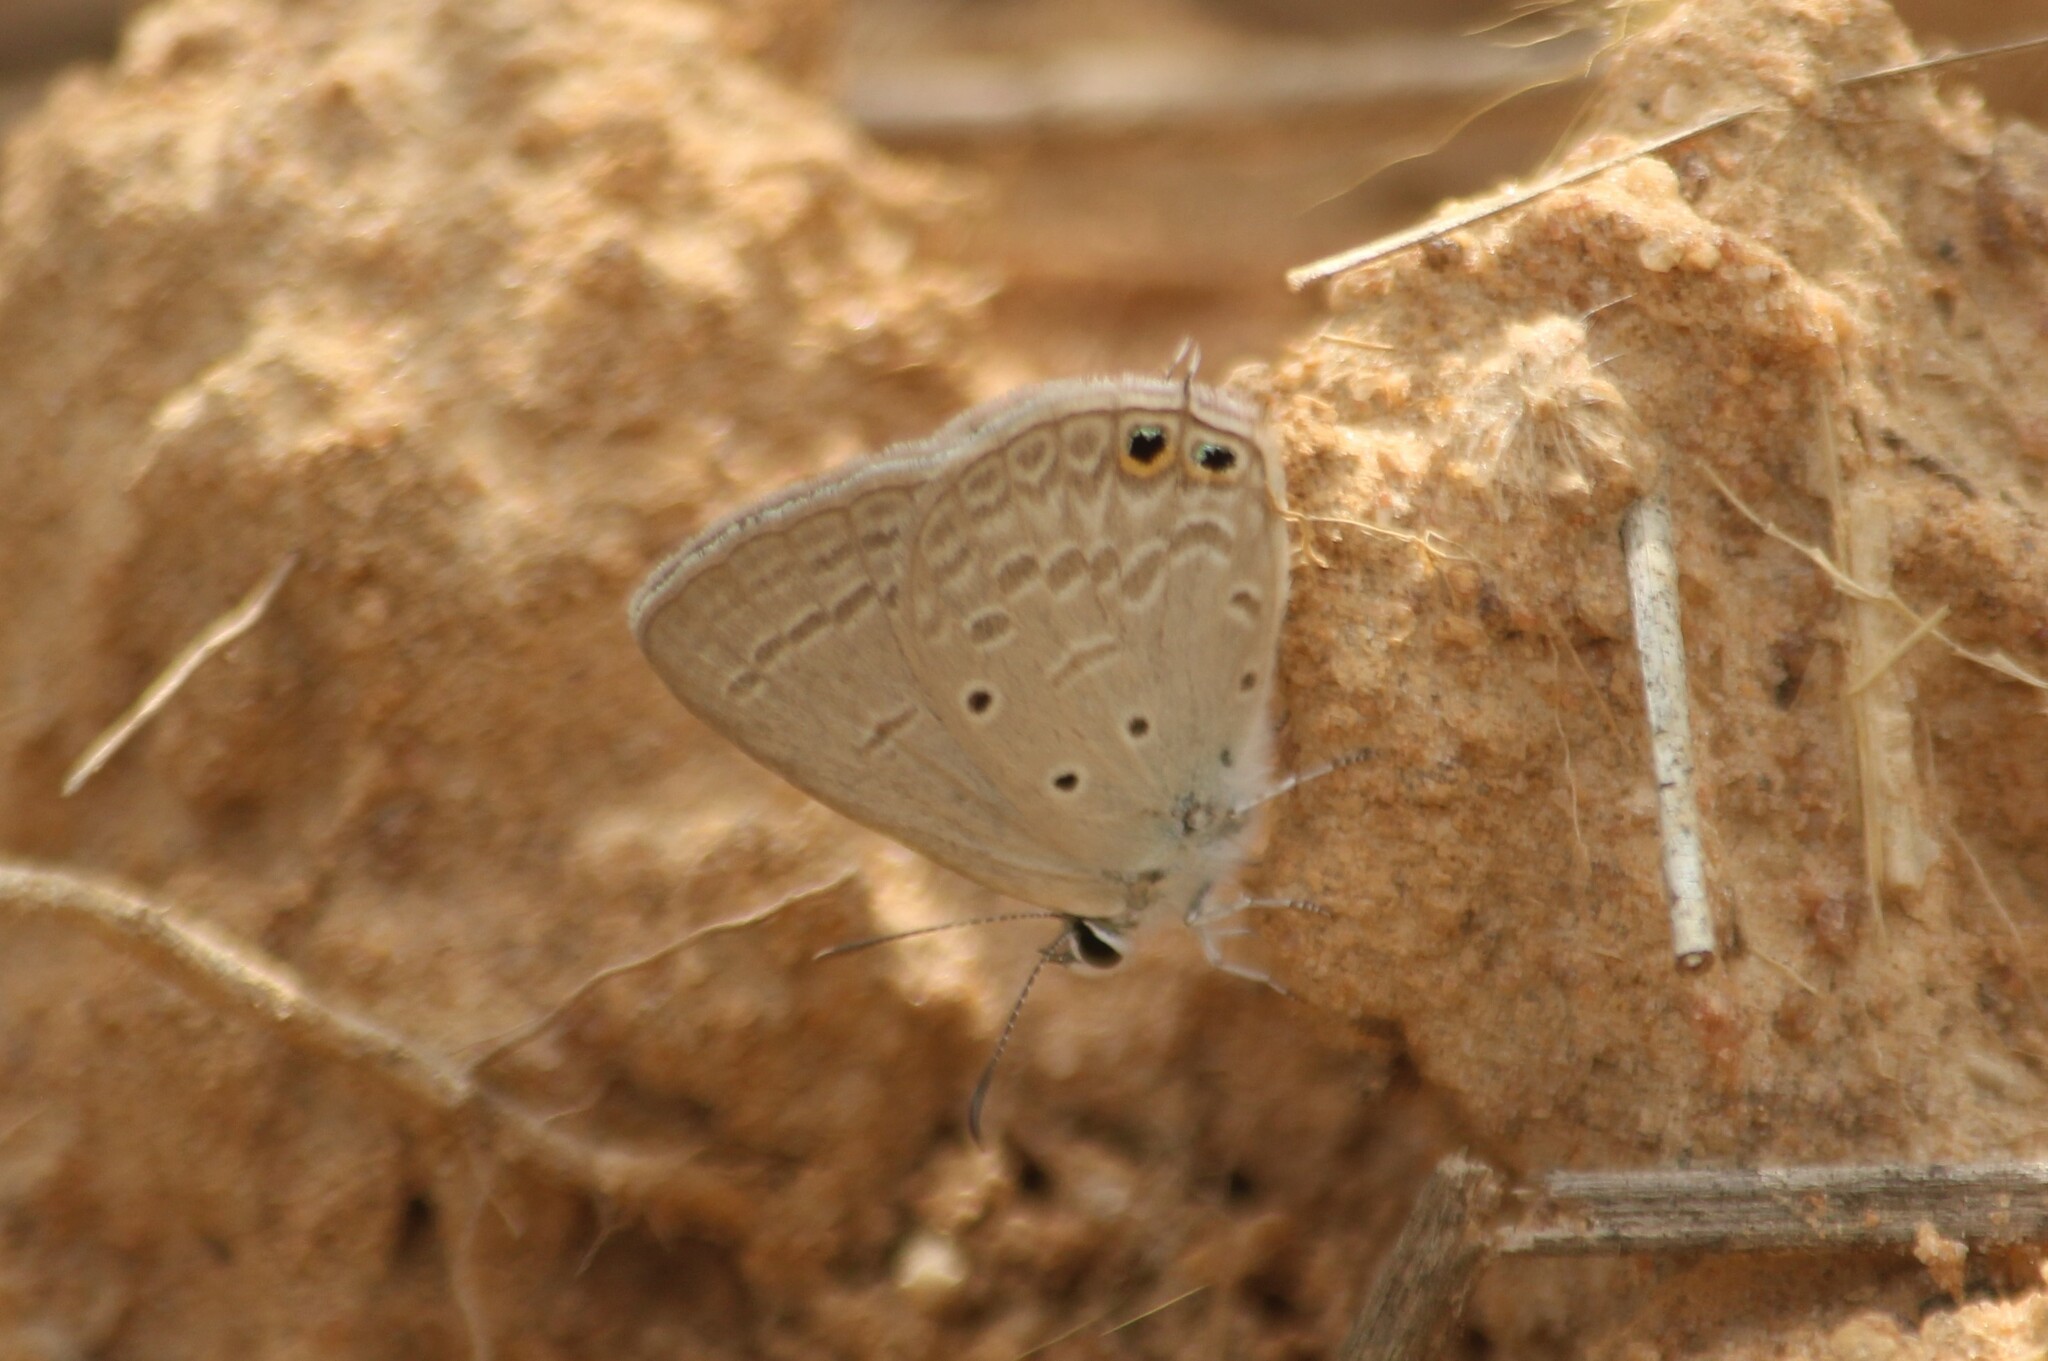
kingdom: Animalia
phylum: Arthropoda
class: Insecta
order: Lepidoptera
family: Lycaenidae
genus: Euchrysops
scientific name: Euchrysops cnejus
